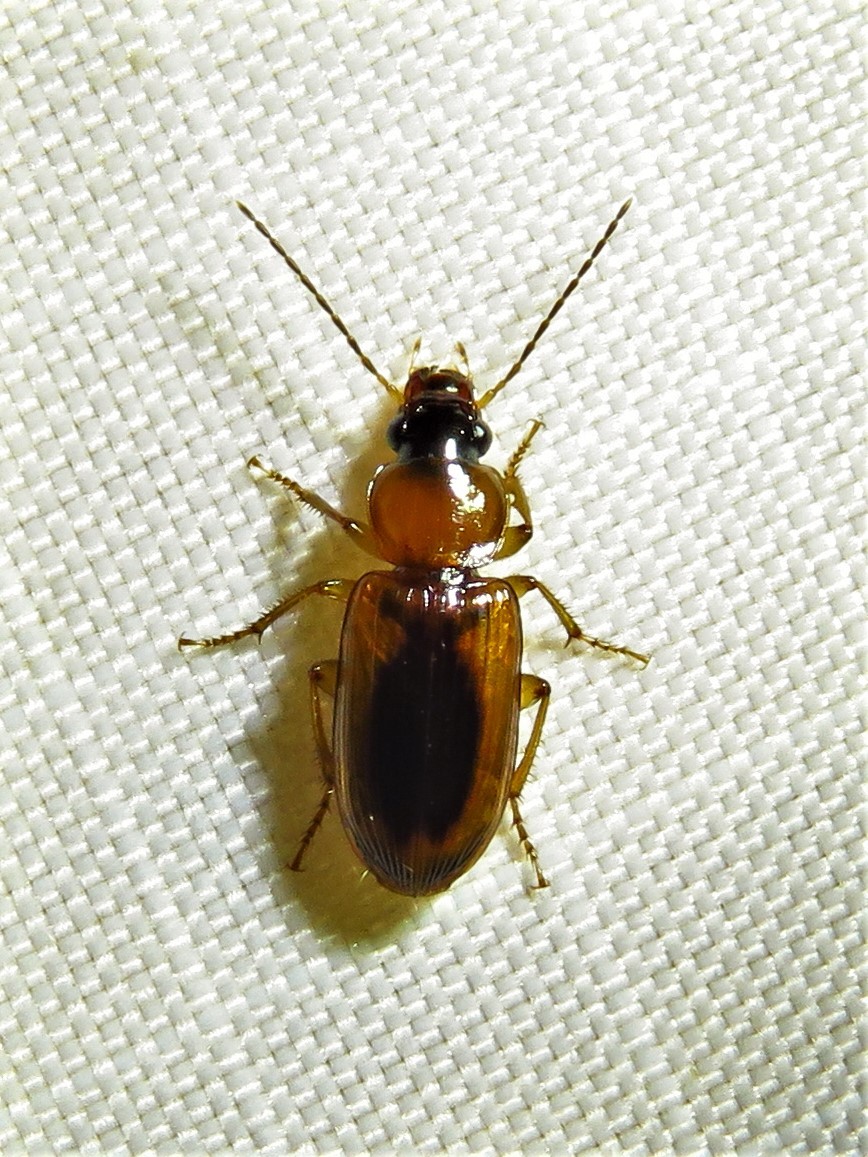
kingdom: Animalia
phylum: Arthropoda
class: Insecta
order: Coleoptera
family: Carabidae
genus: Stenolophus
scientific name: Stenolophus dissimilis
